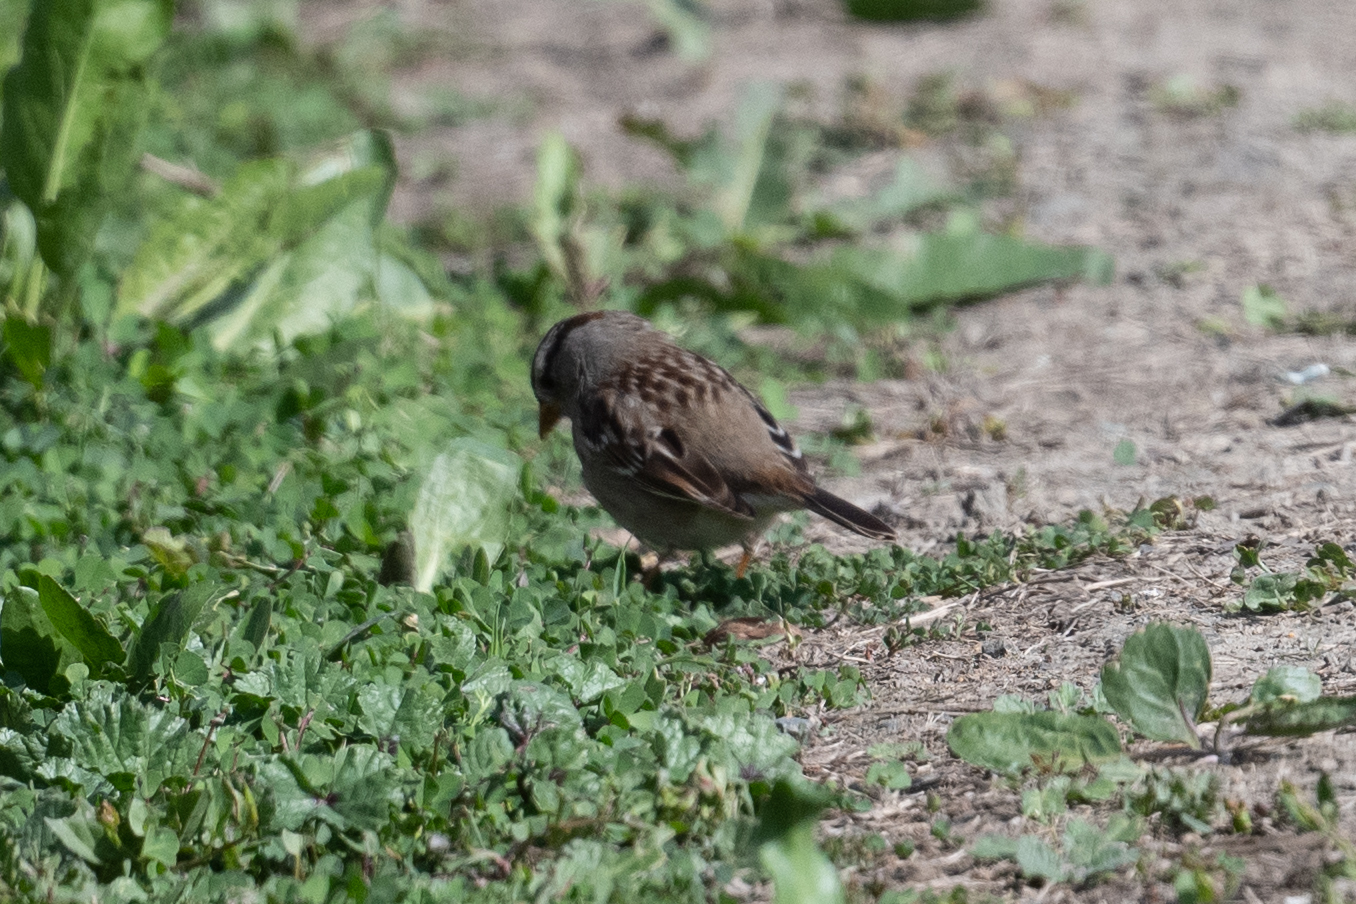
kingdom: Animalia
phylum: Chordata
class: Aves
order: Passeriformes
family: Passerellidae
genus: Zonotrichia
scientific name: Zonotrichia leucophrys
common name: White-crowned sparrow
